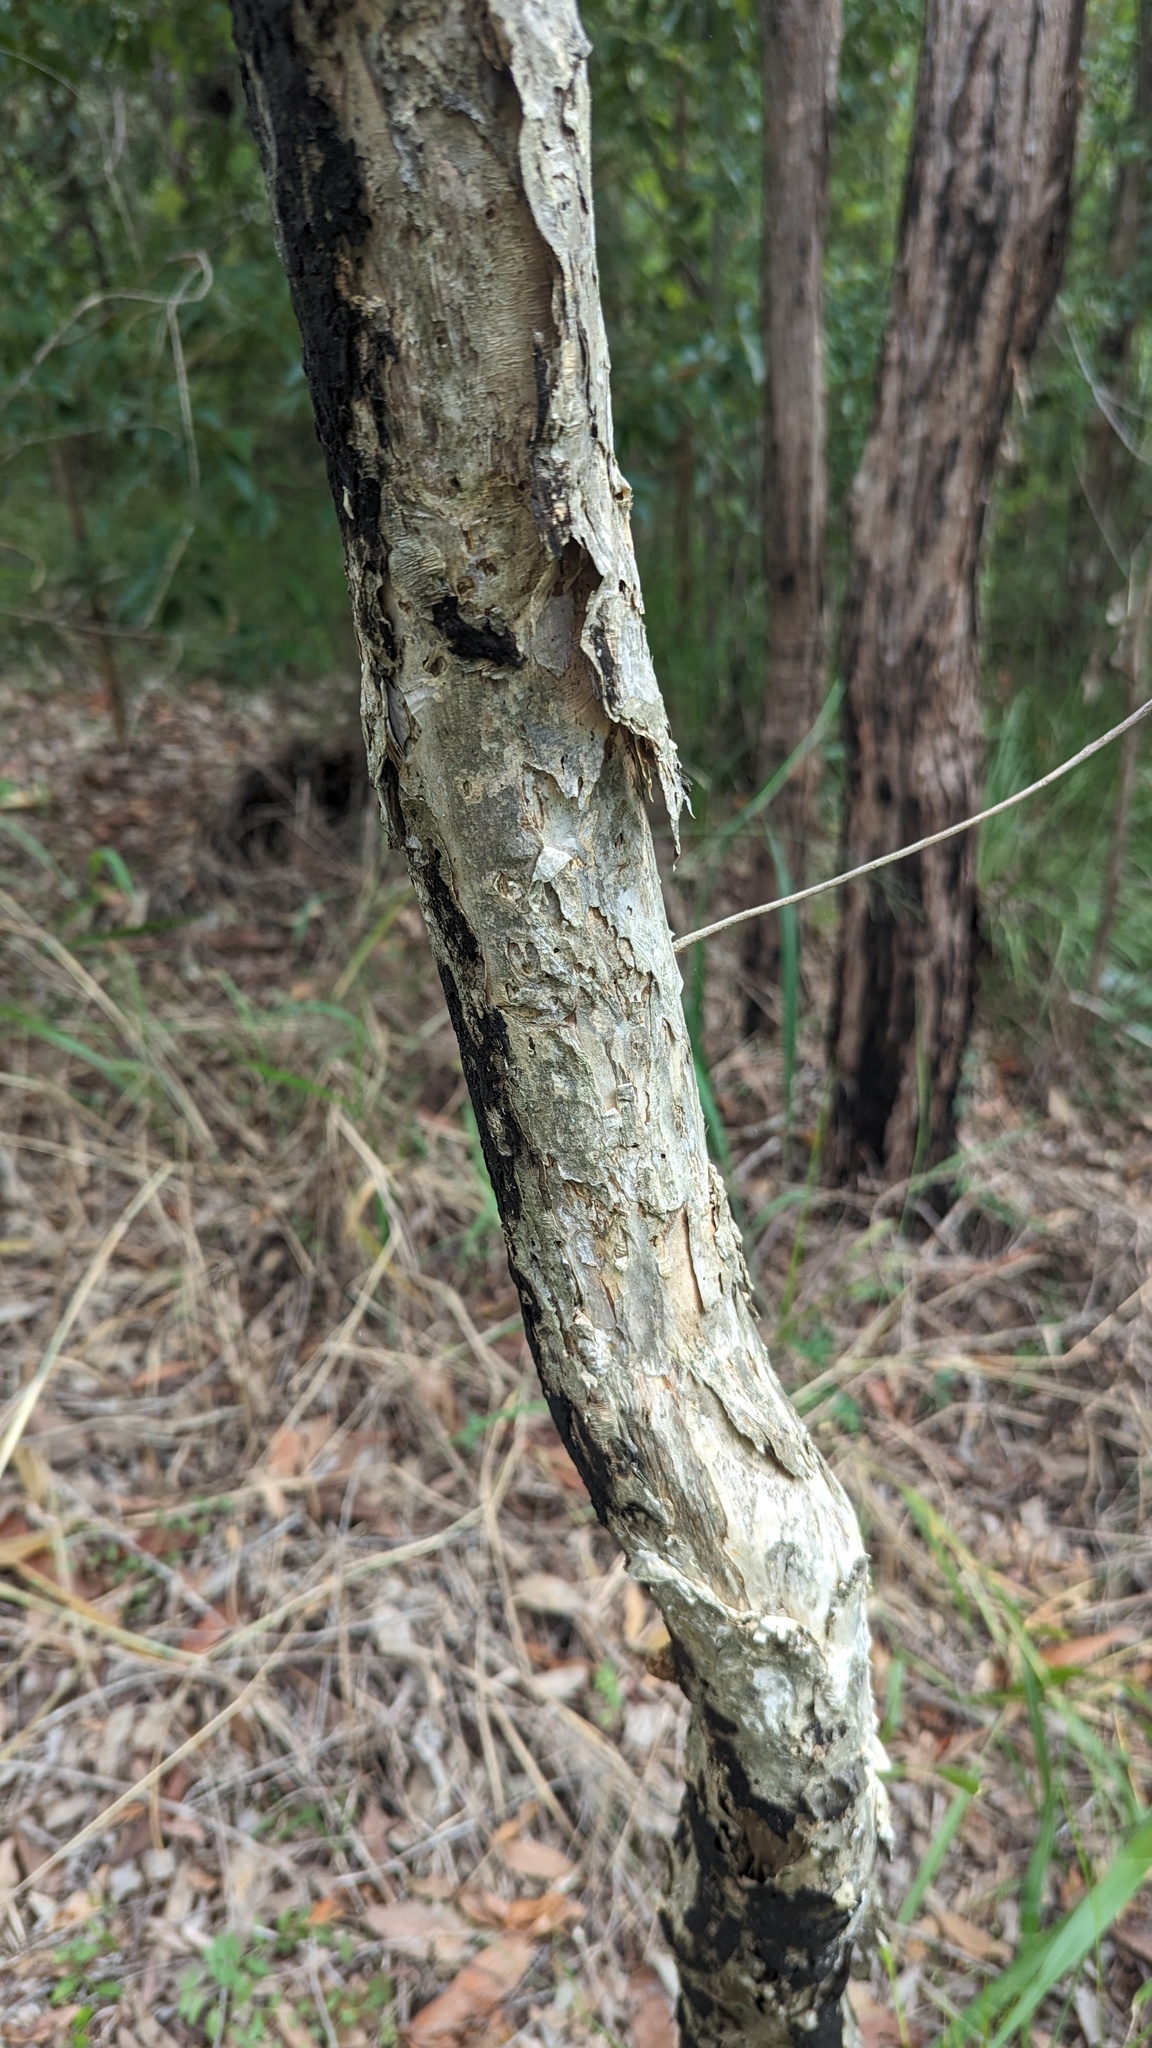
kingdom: Plantae
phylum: Tracheophyta
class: Magnoliopsida
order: Myrtales
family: Myrtaceae
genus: Melaleuca
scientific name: Melaleuca quinquenervia
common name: Punktree
